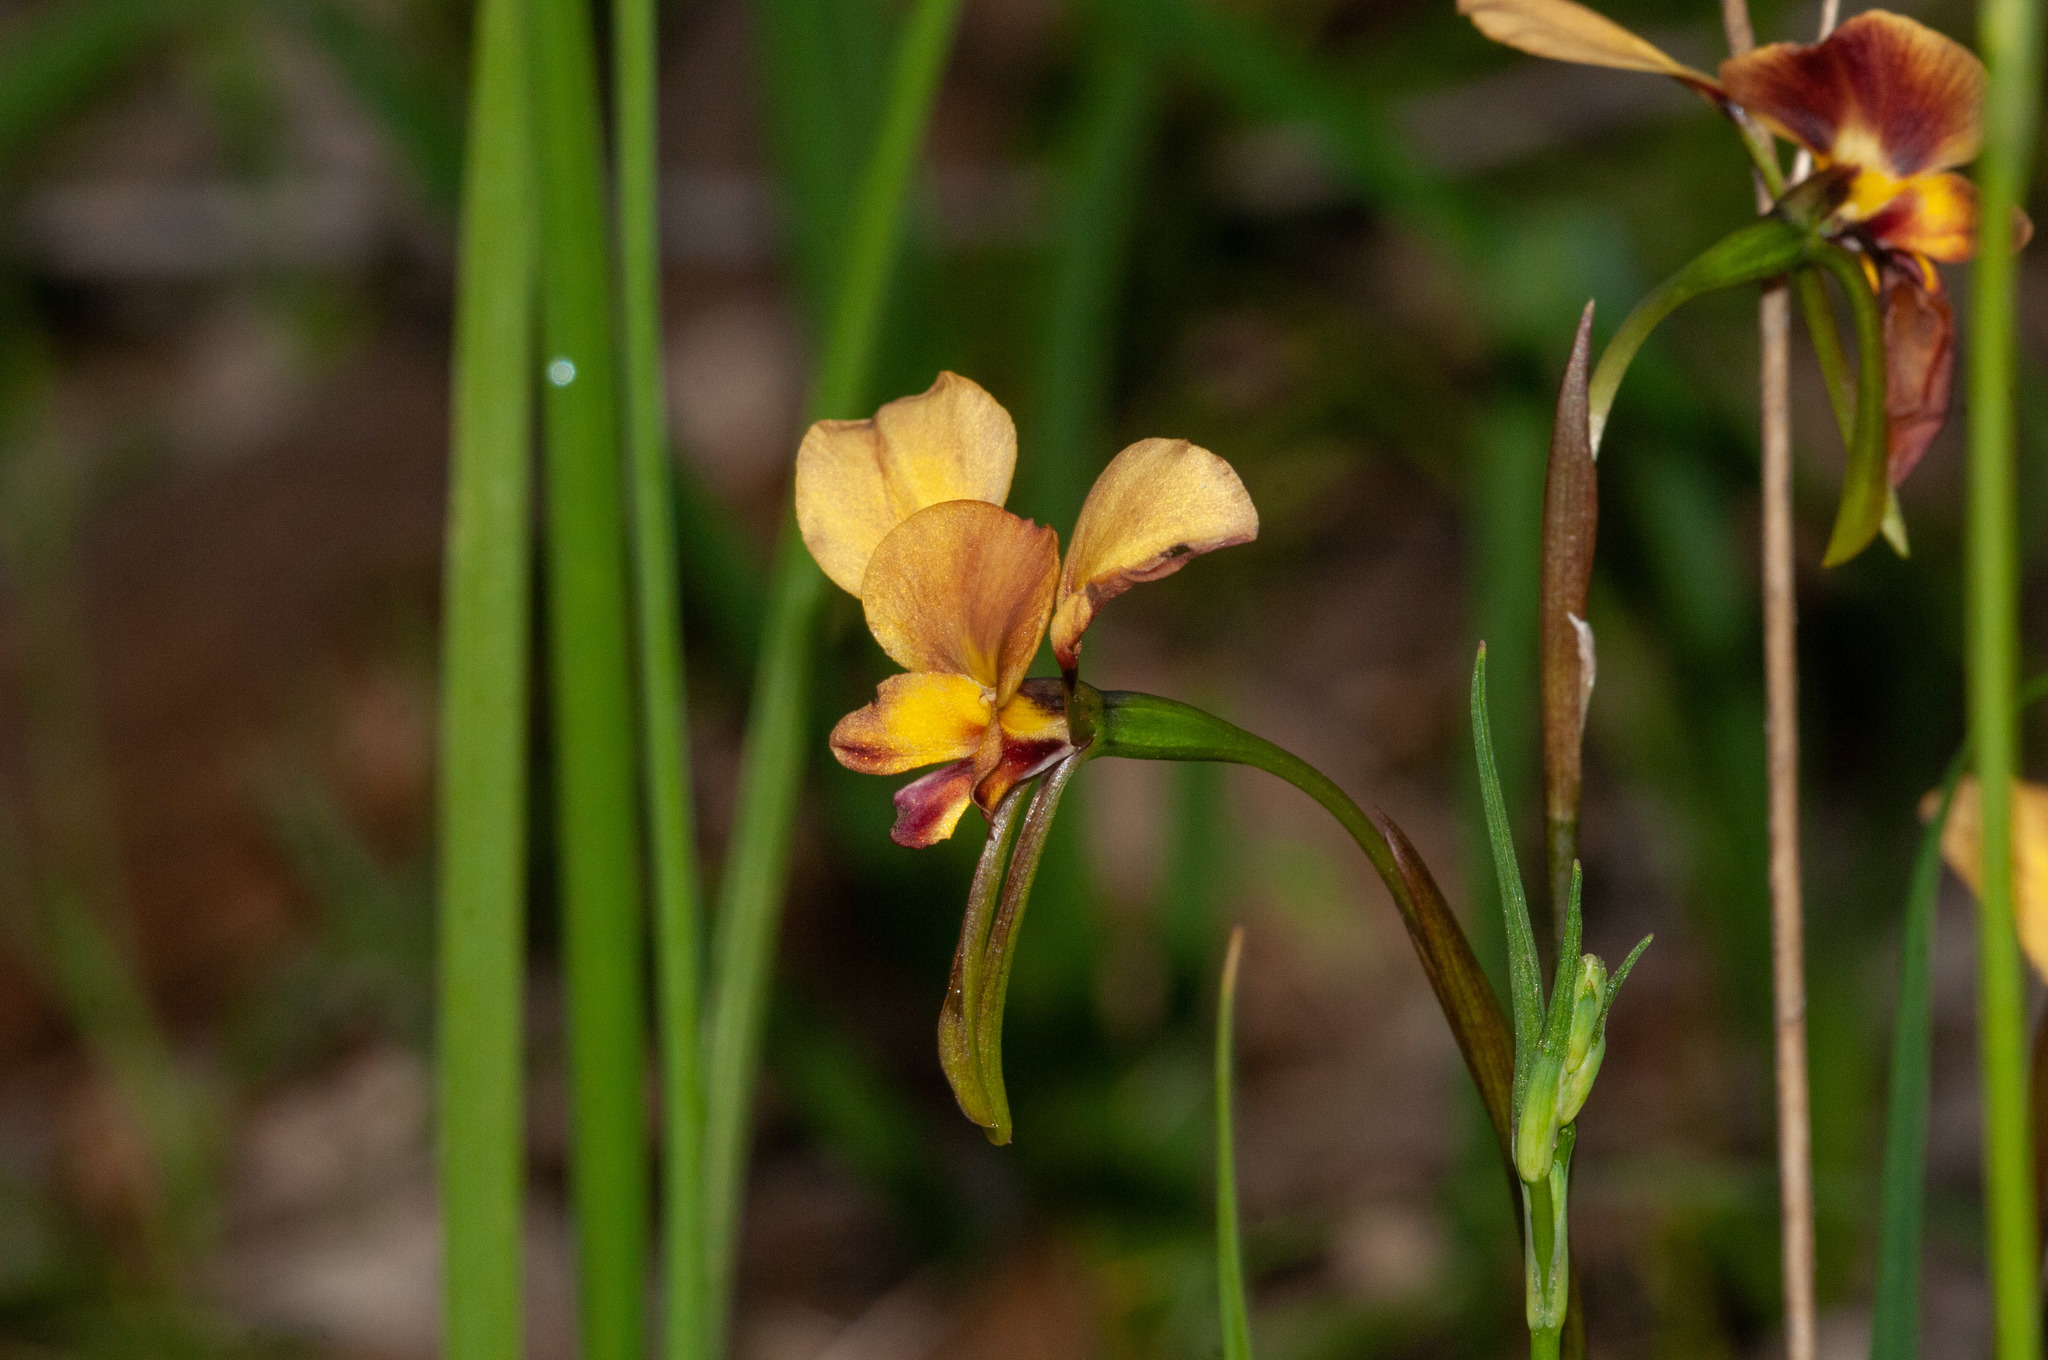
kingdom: Plantae
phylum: Tracheophyta
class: Liliopsida
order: Asparagales
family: Orchidaceae
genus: Diuris
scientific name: Diuris orientis
